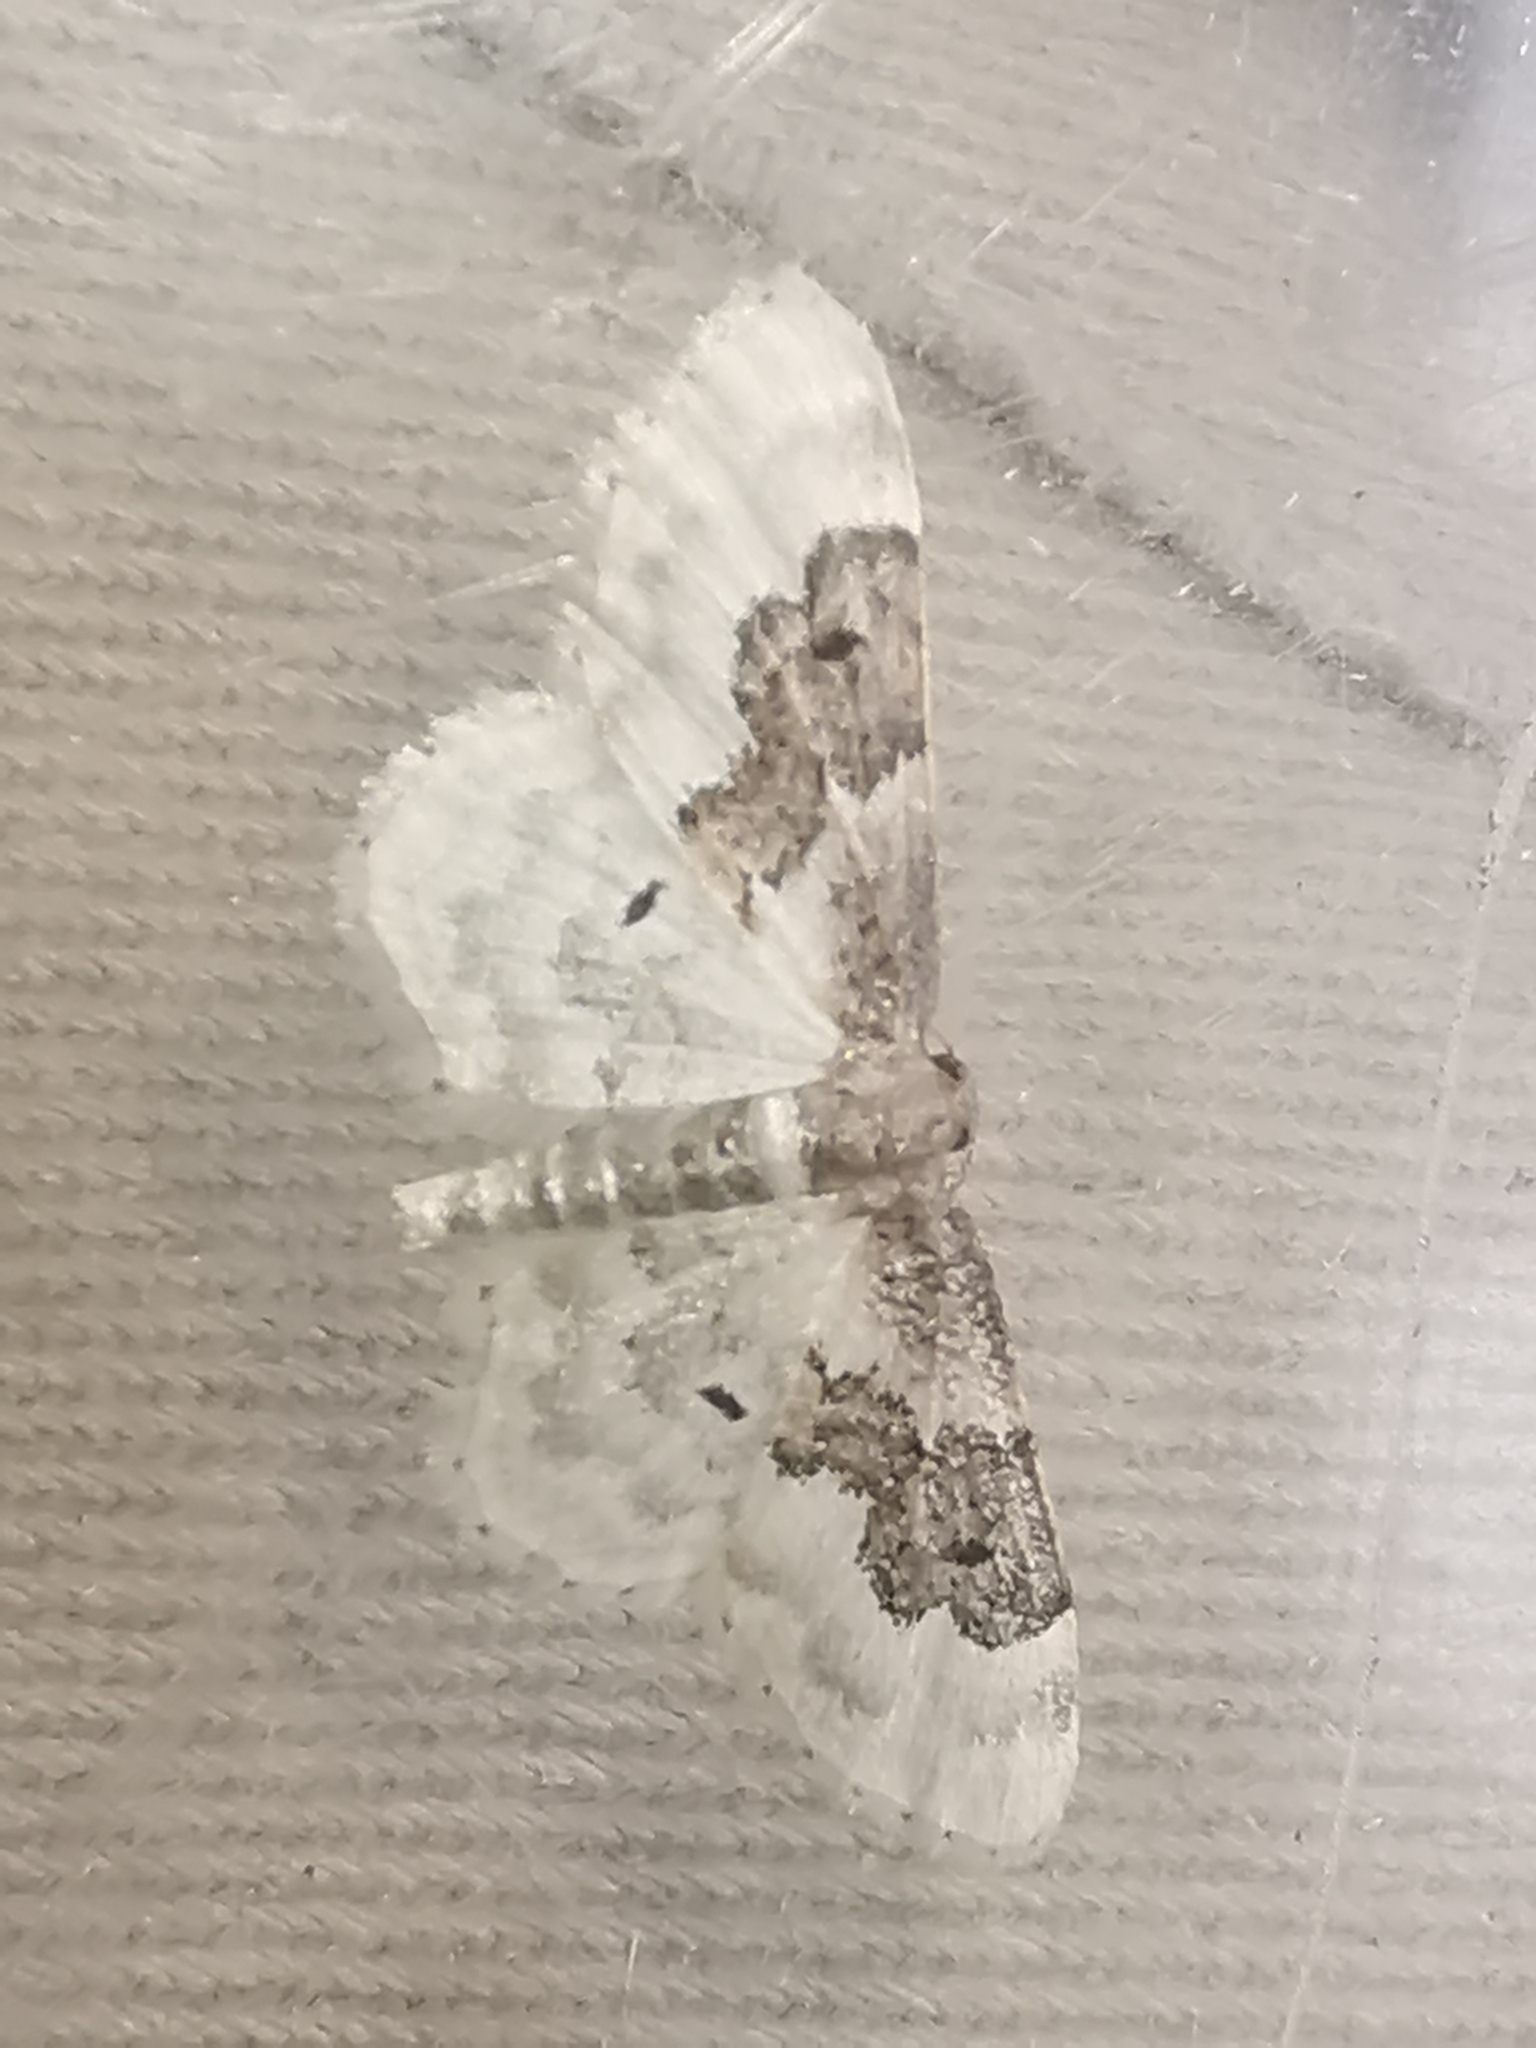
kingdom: Animalia
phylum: Arthropoda
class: Insecta
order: Lepidoptera
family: Geometridae
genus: Idaea
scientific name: Idaea rusticata
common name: Least carpet
